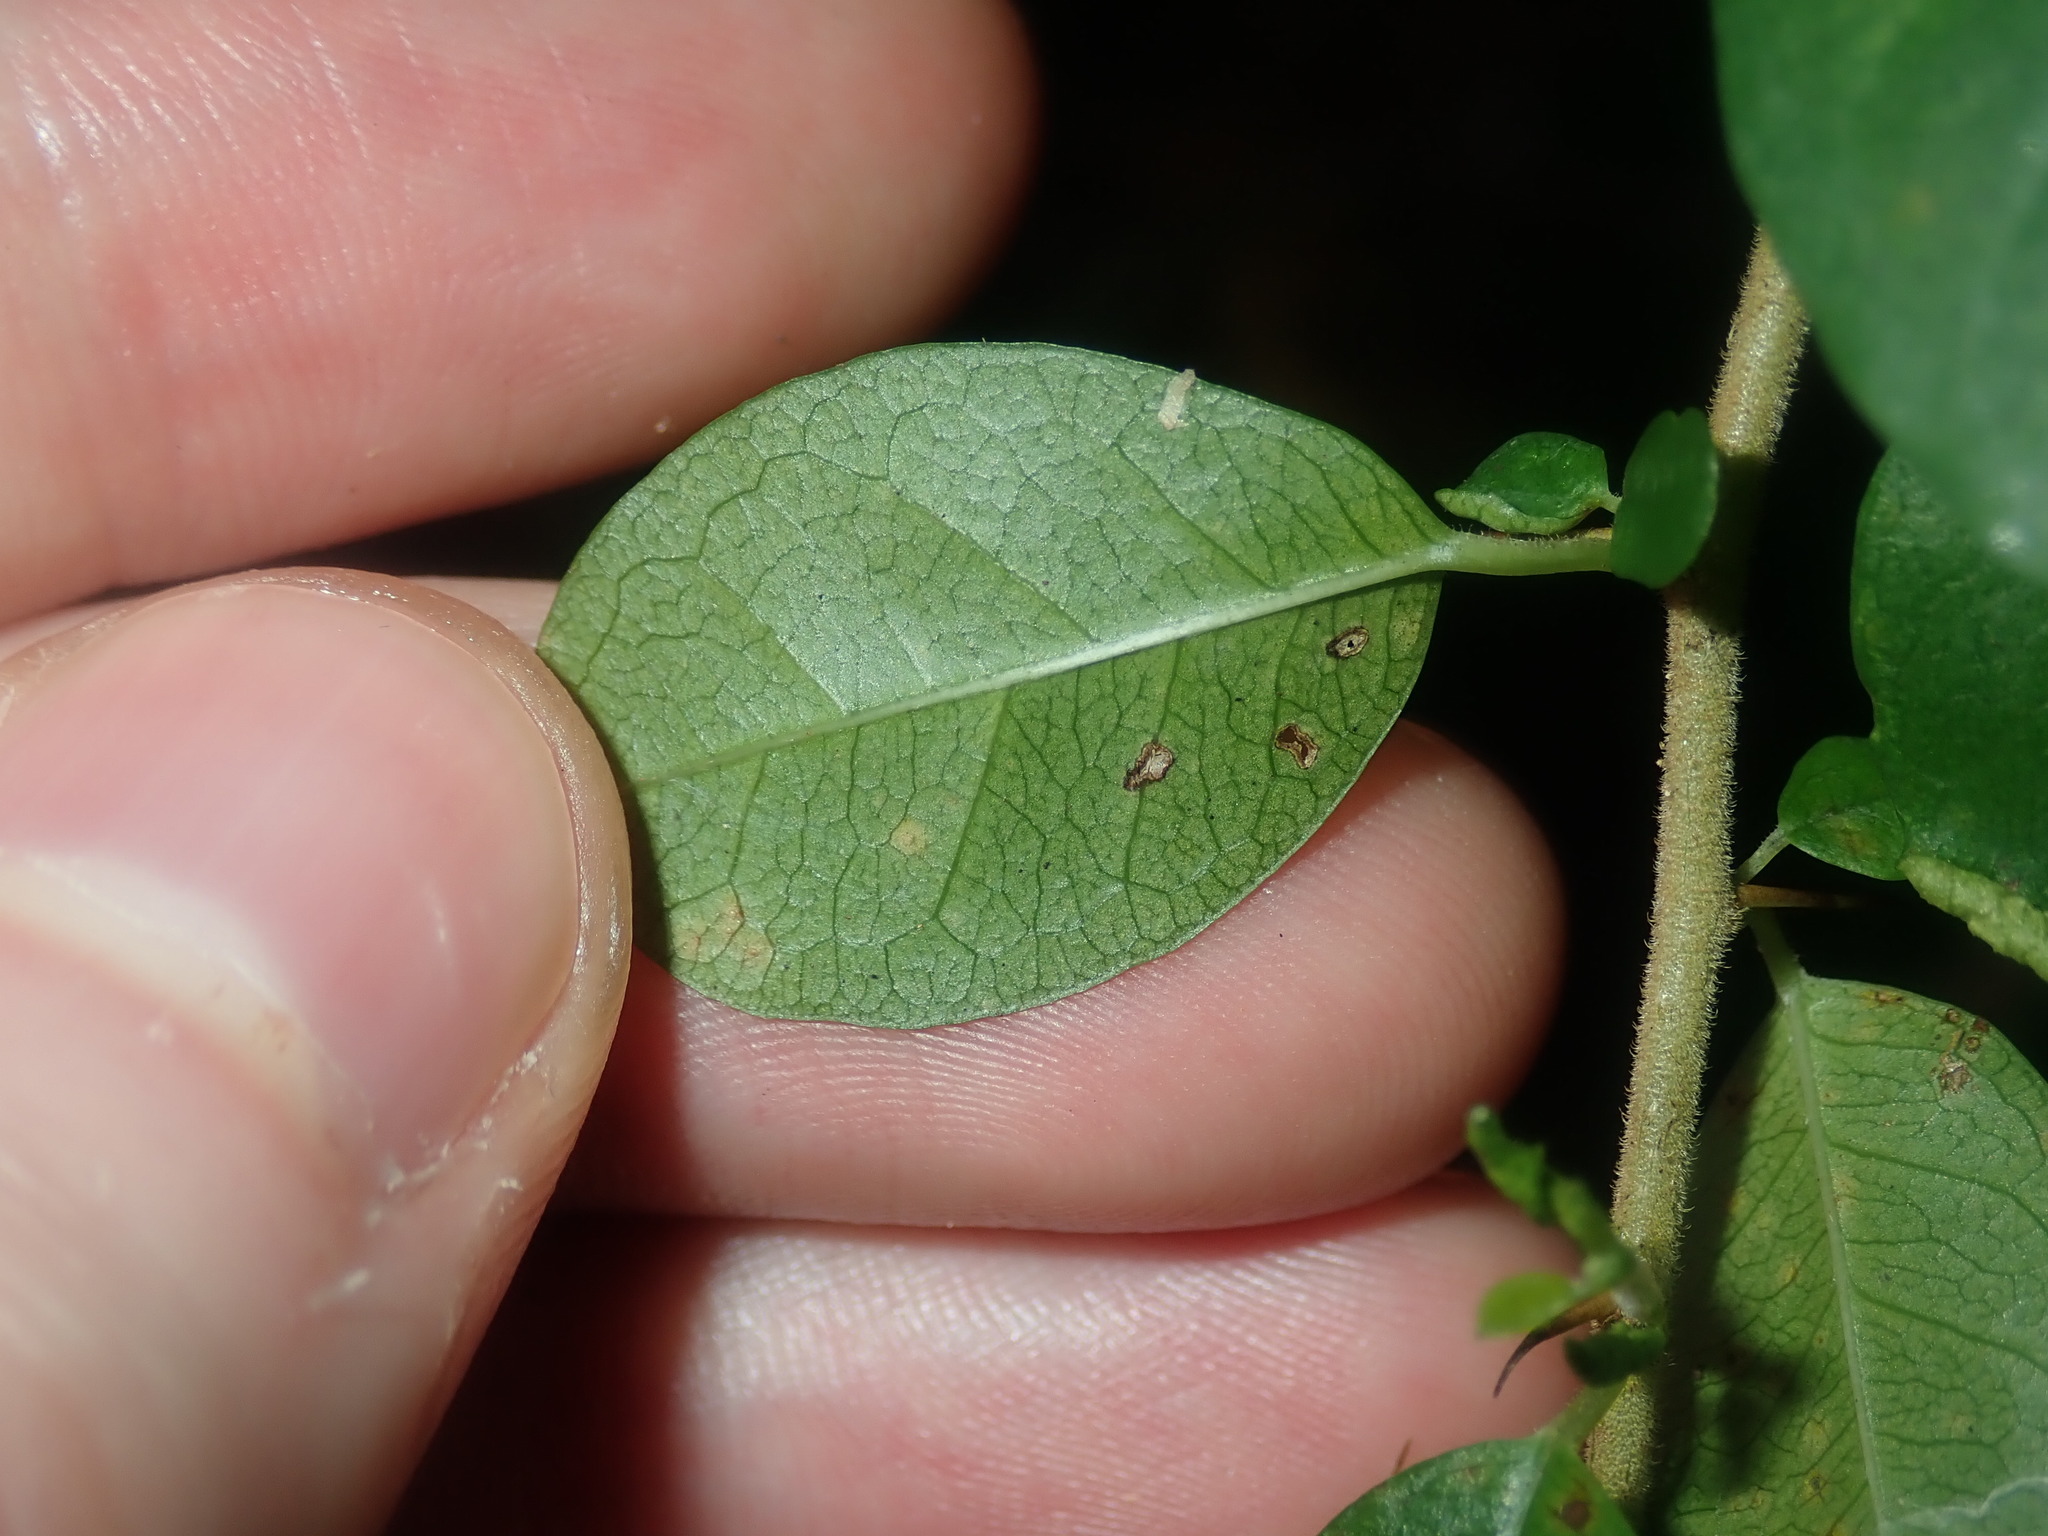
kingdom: Plantae
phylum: Tracheophyta
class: Magnoliopsida
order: Rosales
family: Moraceae
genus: Maclura
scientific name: Maclura cochinchinensis
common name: Cockspurthorn
